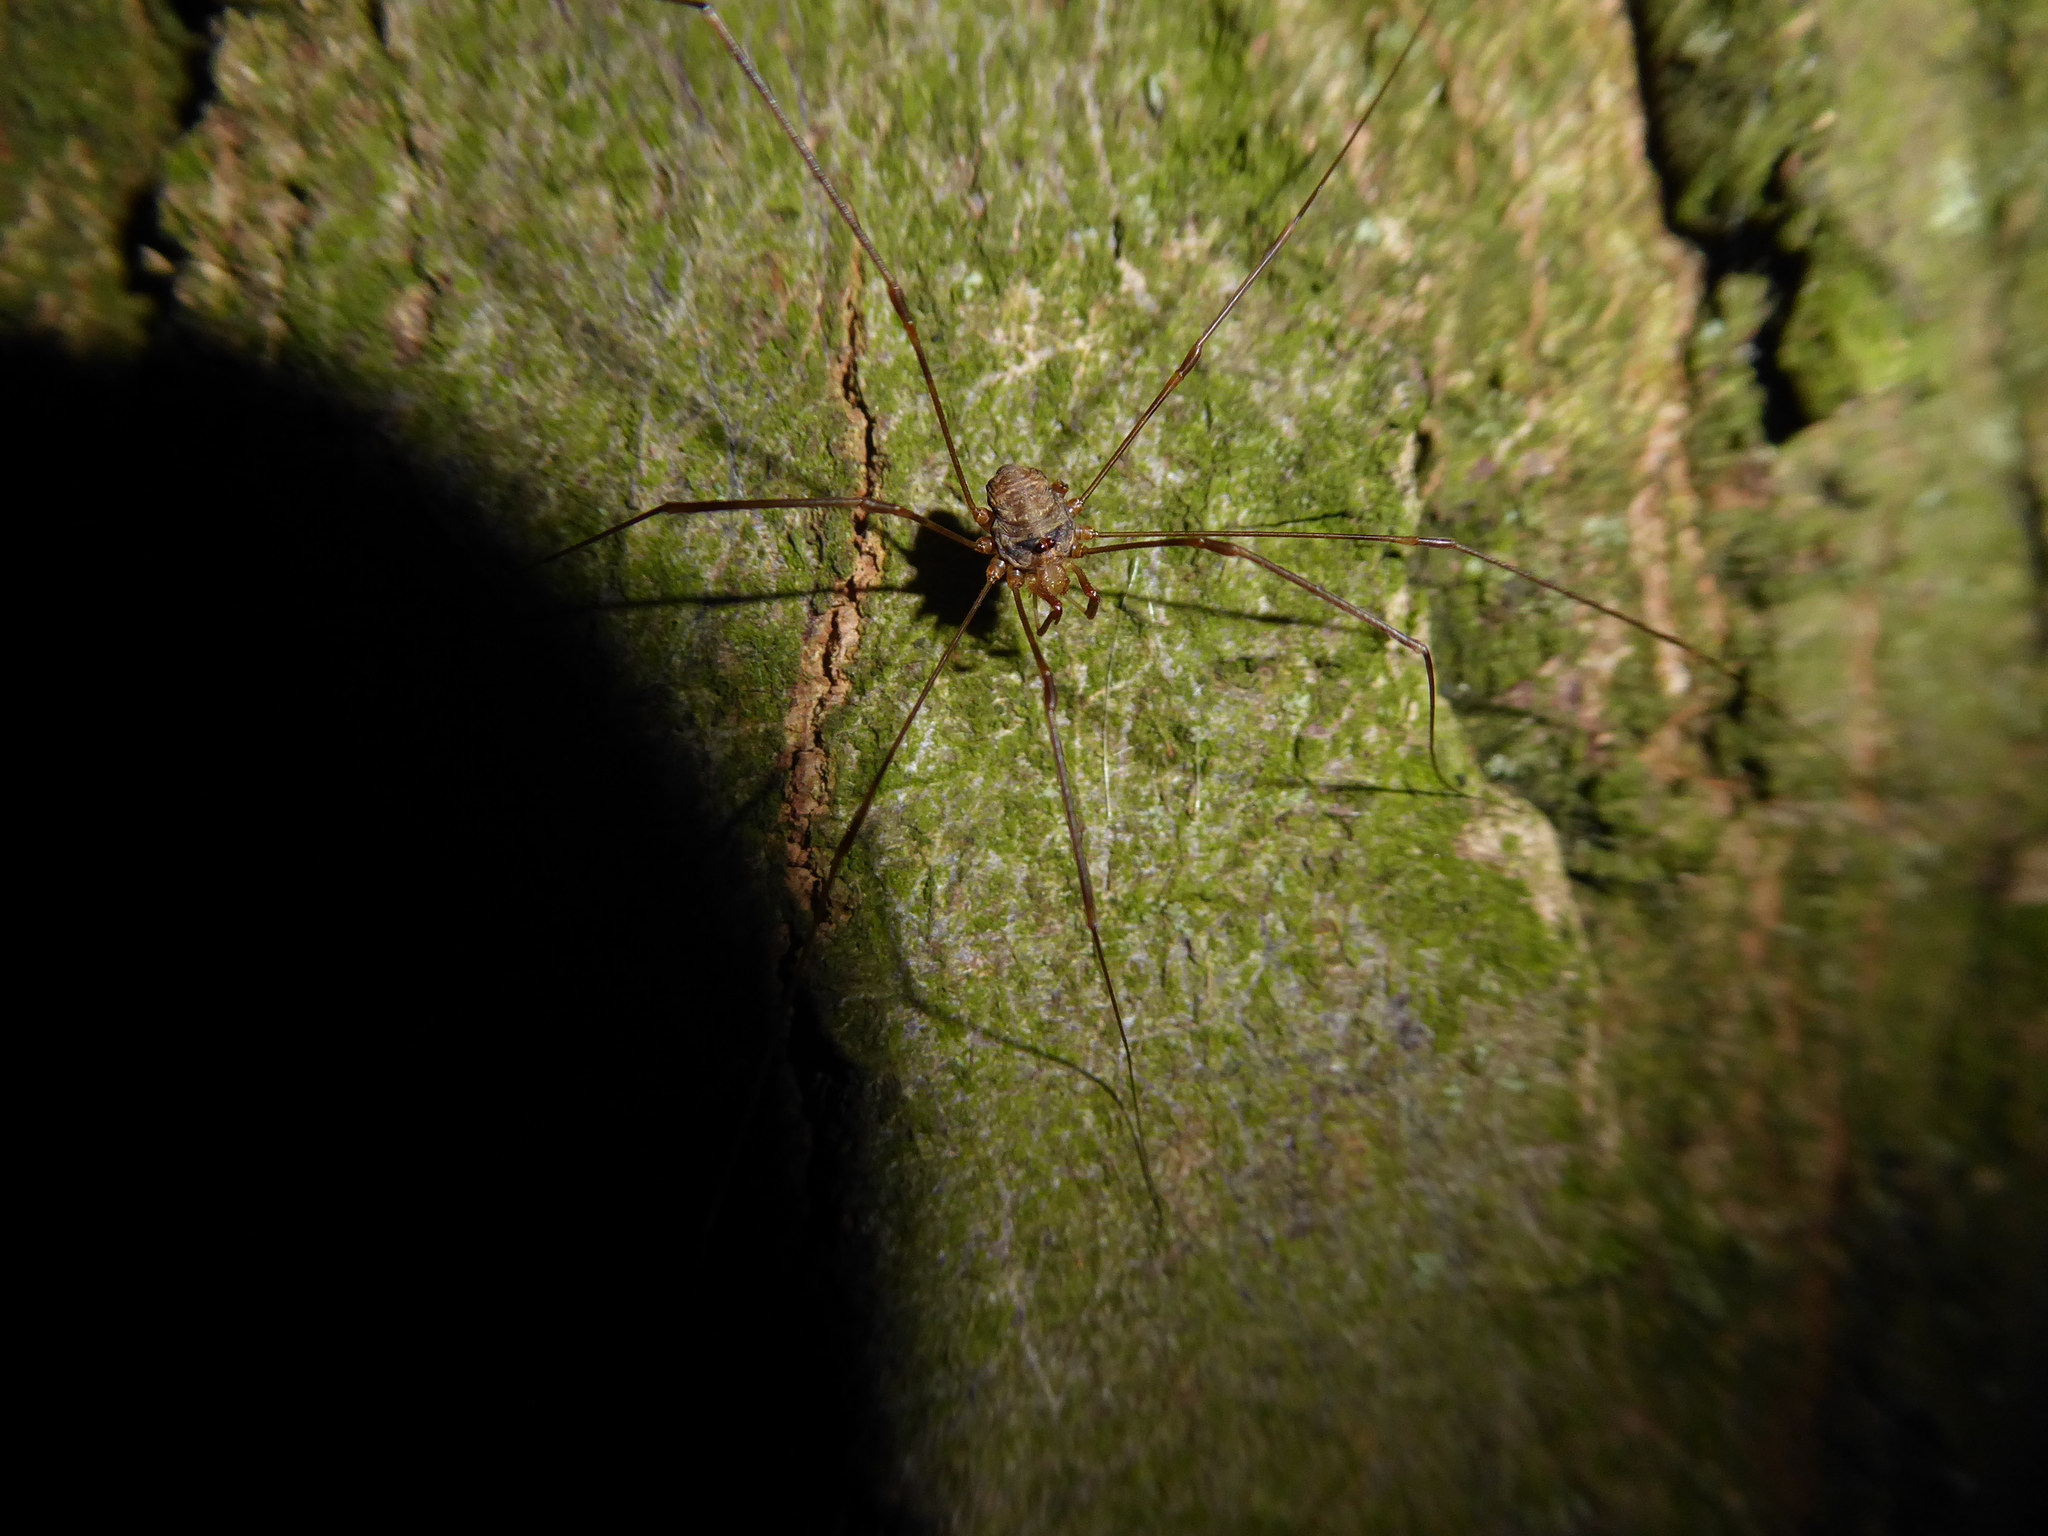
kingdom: Animalia
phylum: Arthropoda
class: Arachnida
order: Opiliones
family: Phalangiidae
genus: Dicranopalpus
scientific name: Dicranopalpus
